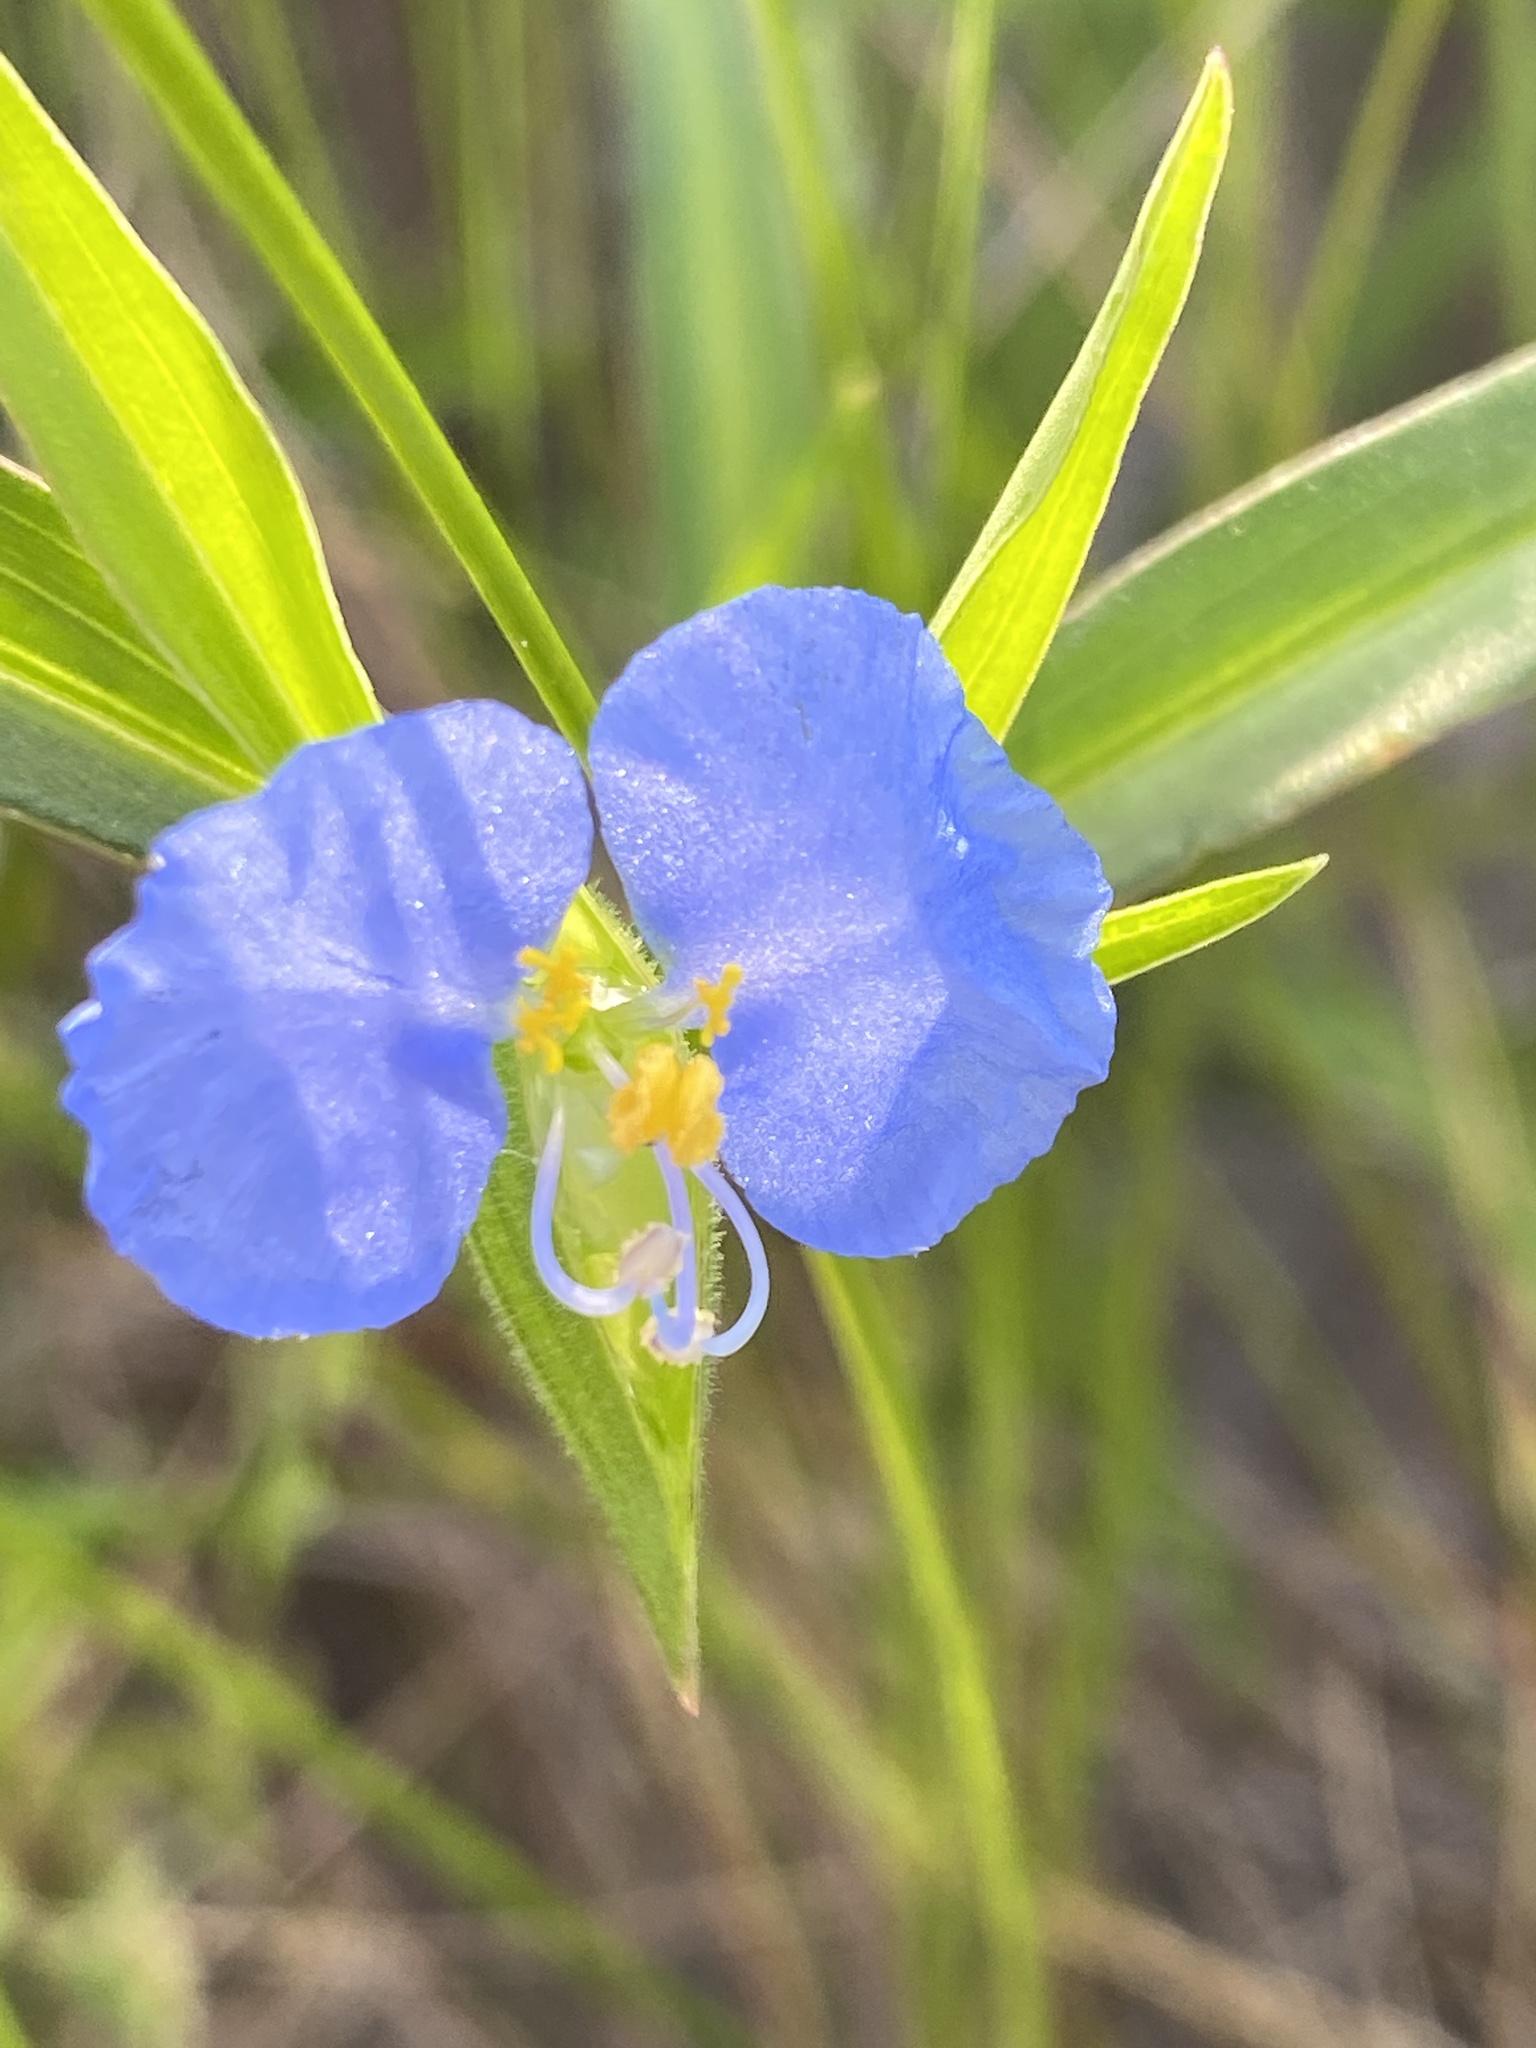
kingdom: Plantae
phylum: Tracheophyta
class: Liliopsida
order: Commelinales
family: Commelinaceae
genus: Commelina
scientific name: Commelina erecta
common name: Blousel blommetjie
